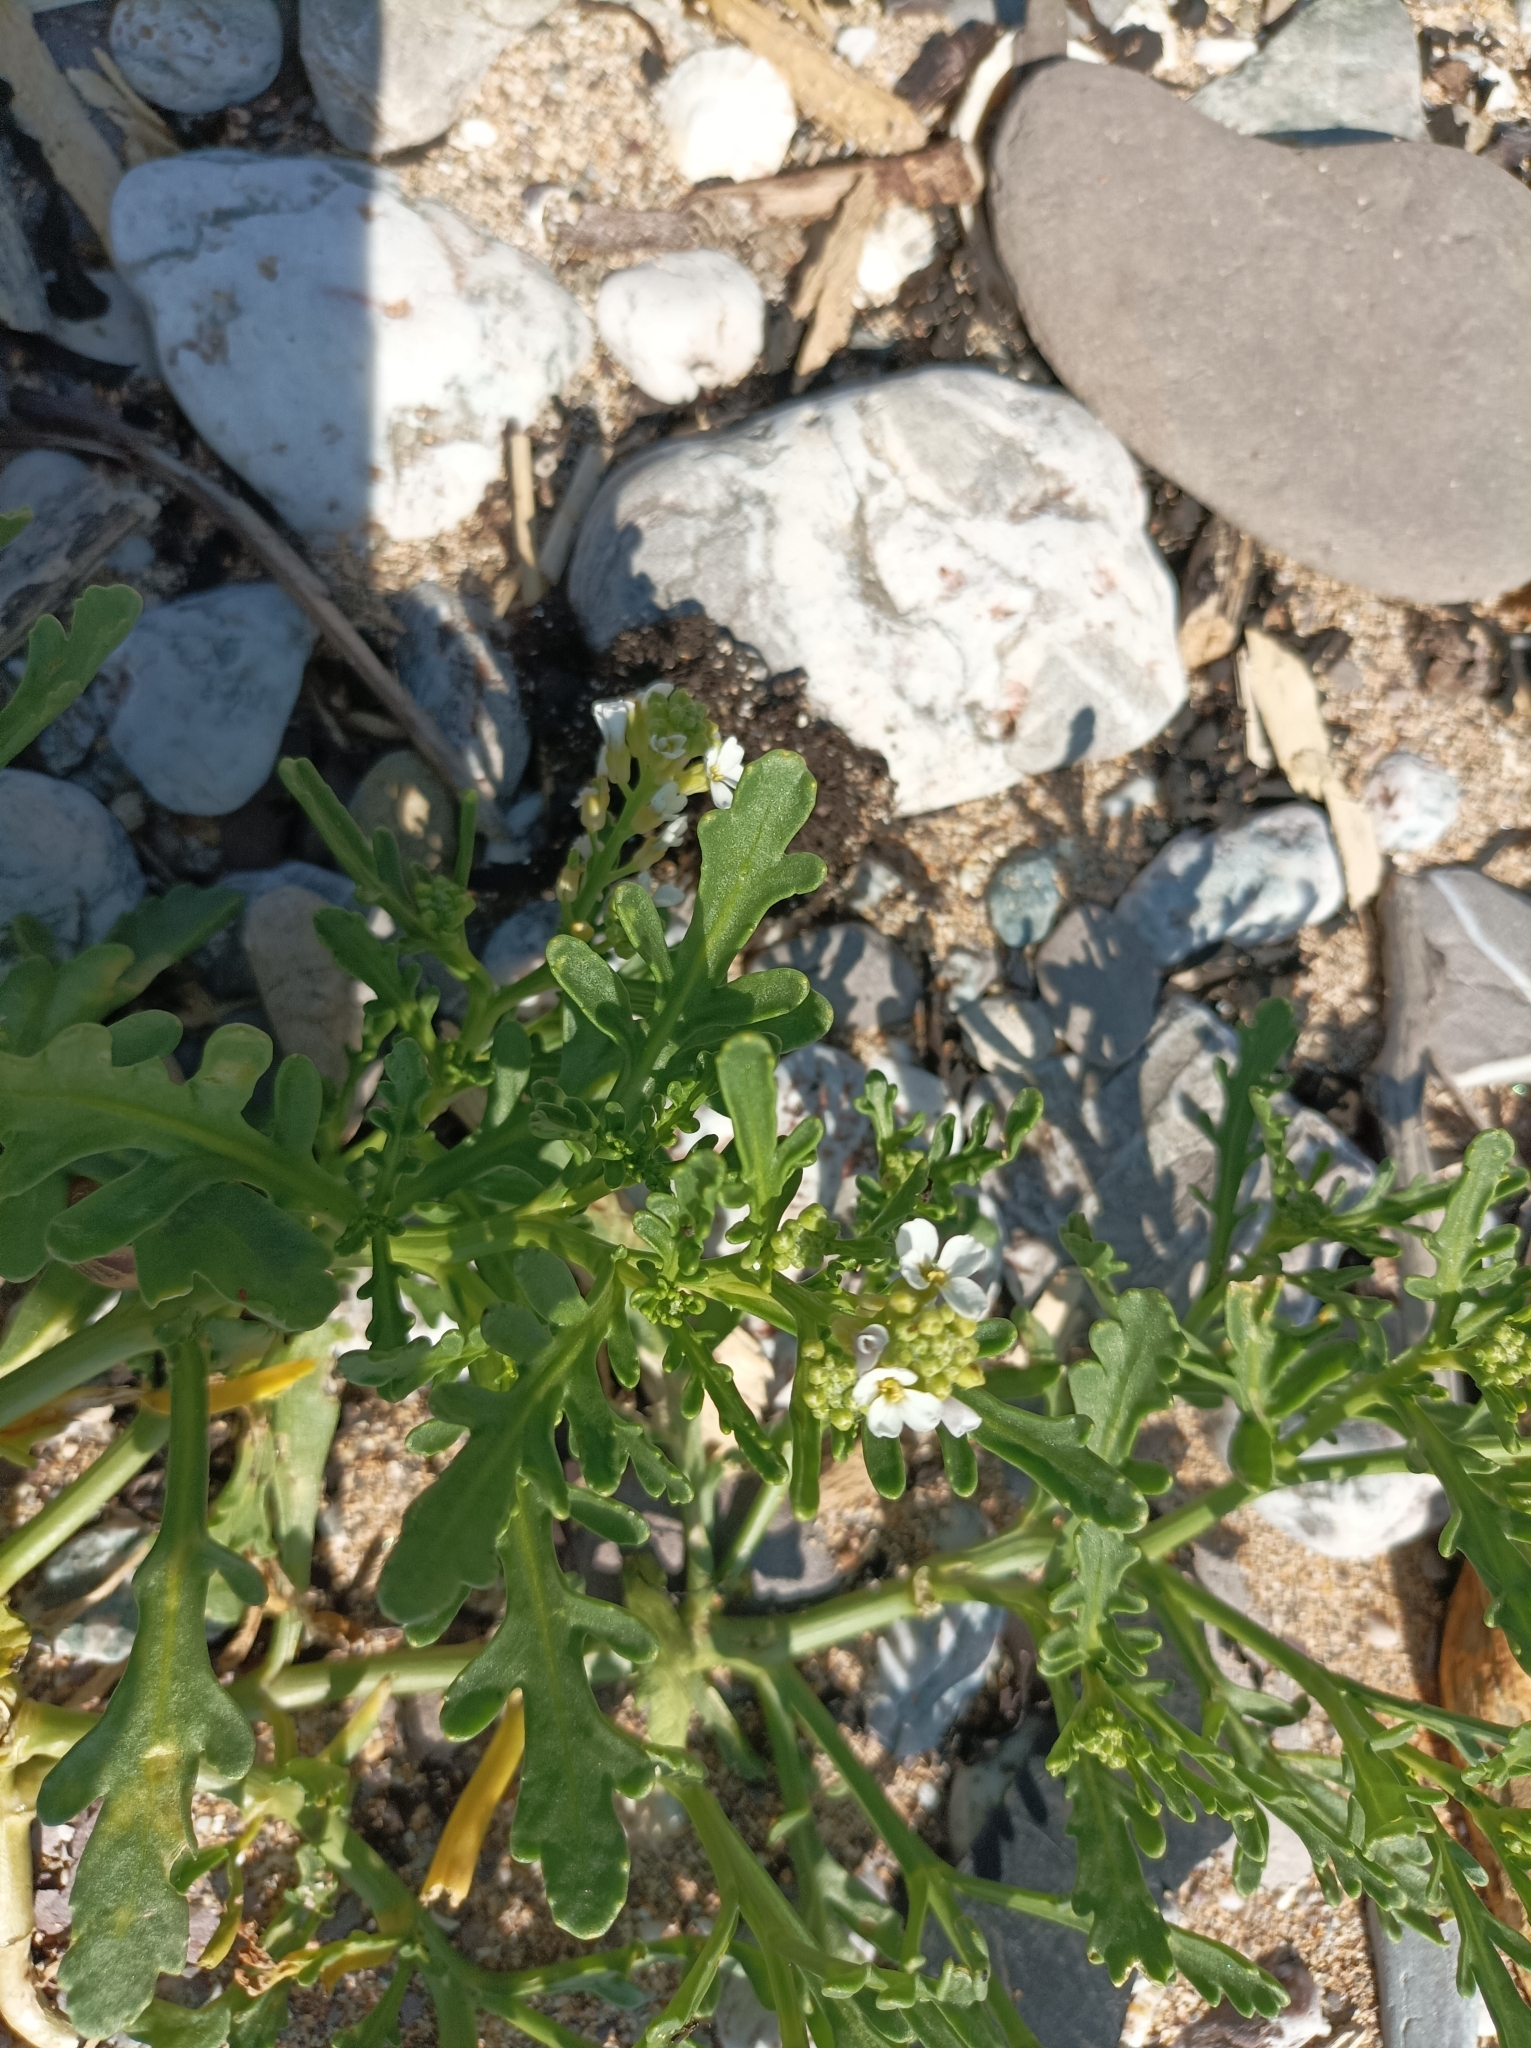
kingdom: Plantae
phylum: Tracheophyta
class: Magnoliopsida
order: Brassicales
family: Brassicaceae
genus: Cakile
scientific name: Cakile maritima
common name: Sea rocket
